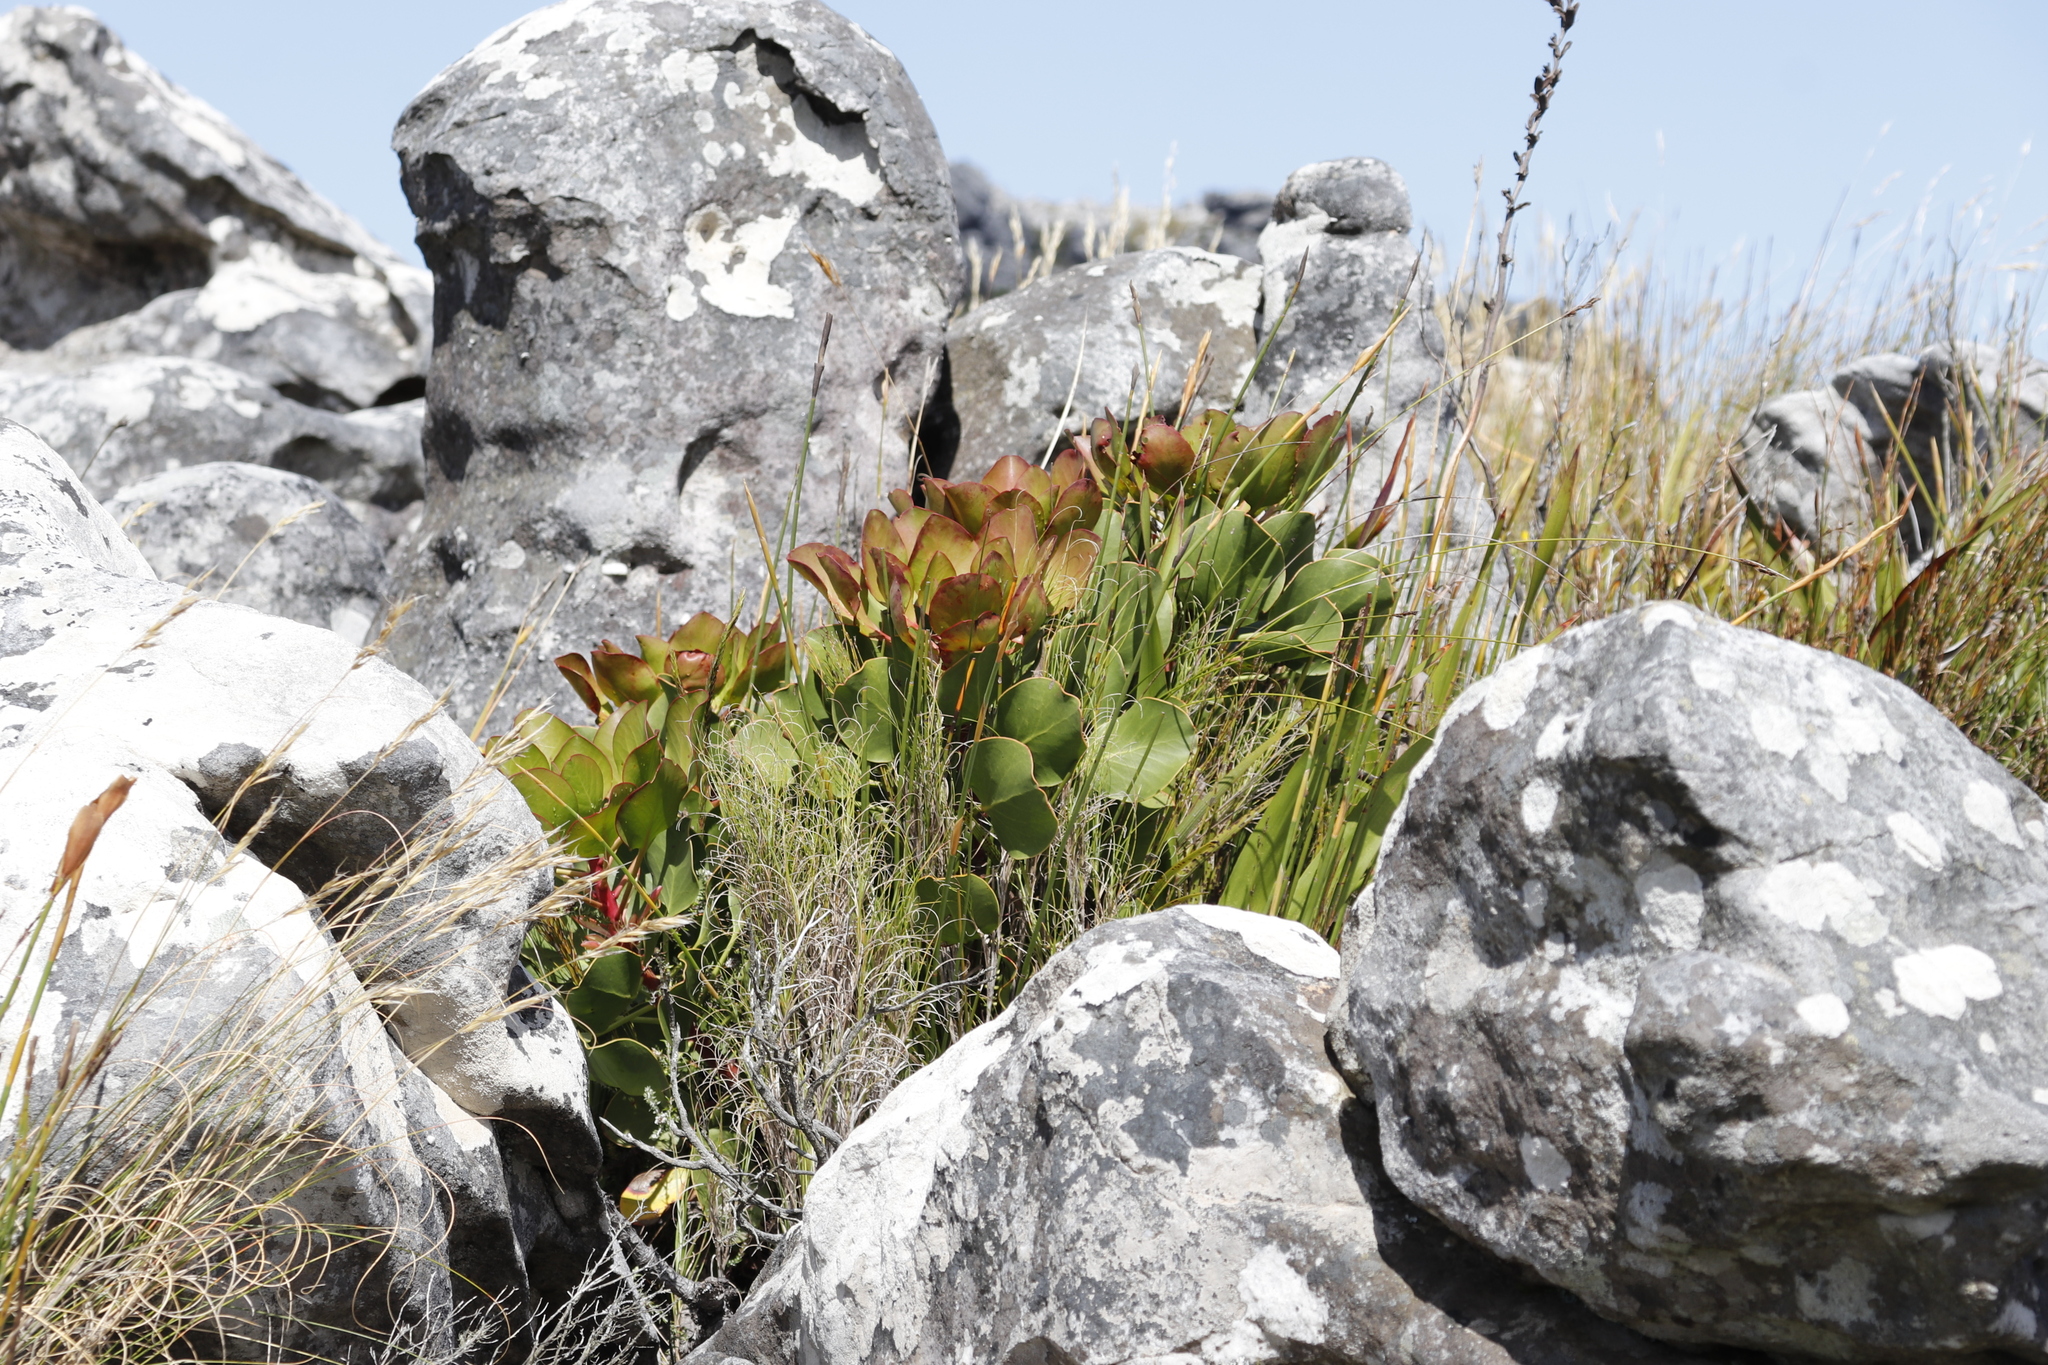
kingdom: Plantae
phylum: Tracheophyta
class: Magnoliopsida
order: Proteales
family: Proteaceae
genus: Protea
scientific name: Protea cynaroides
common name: King protea
